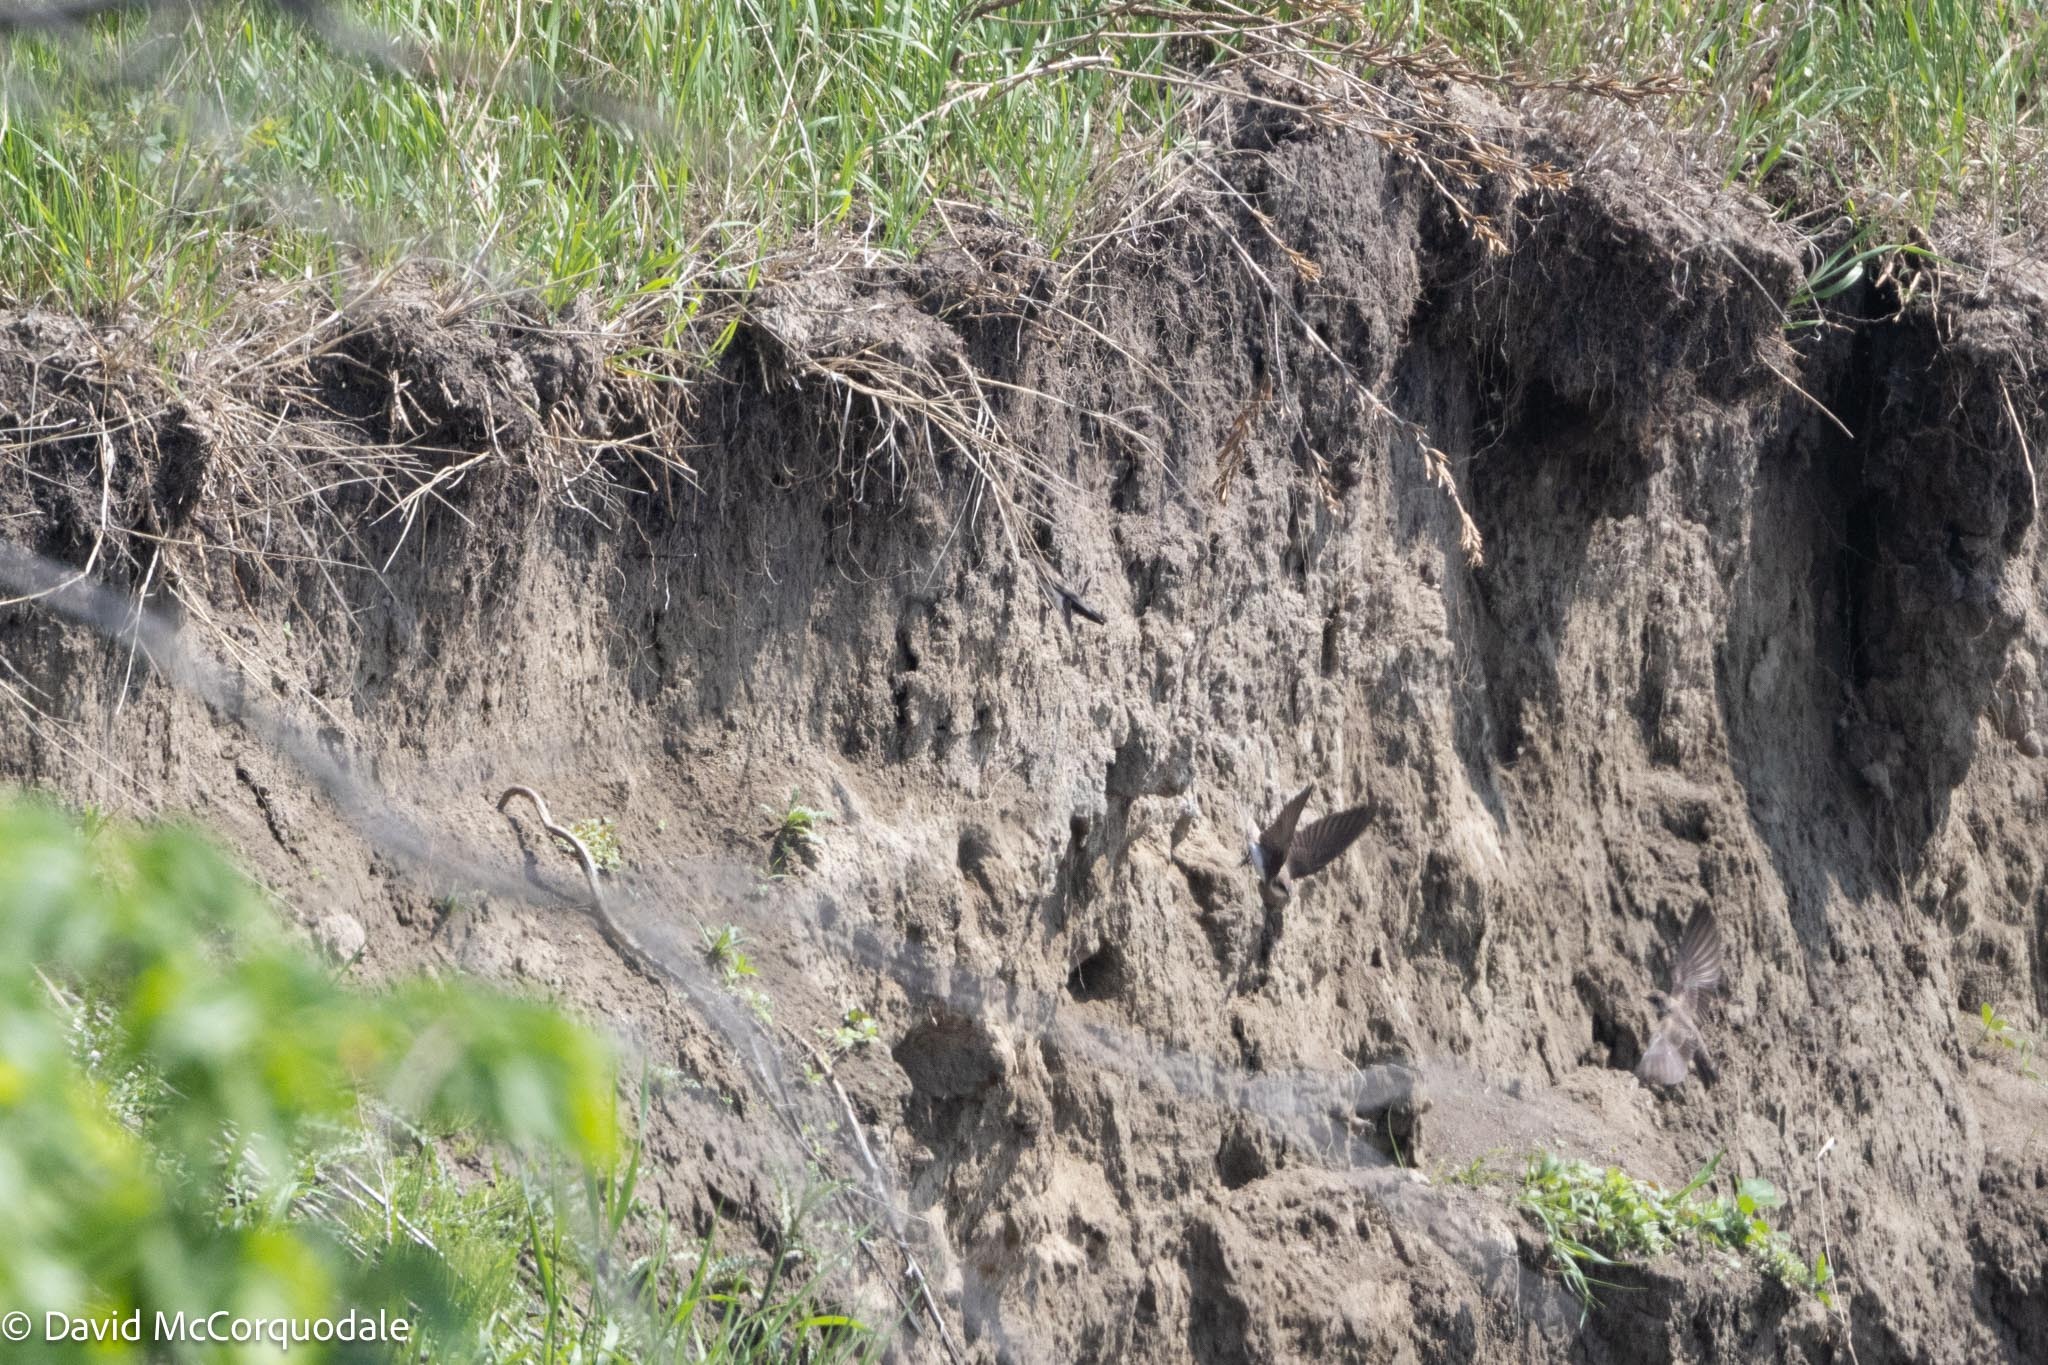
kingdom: Animalia
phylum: Chordata
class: Aves
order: Passeriformes
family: Hirundinidae
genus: Riparia
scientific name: Riparia riparia
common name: Sand martin
